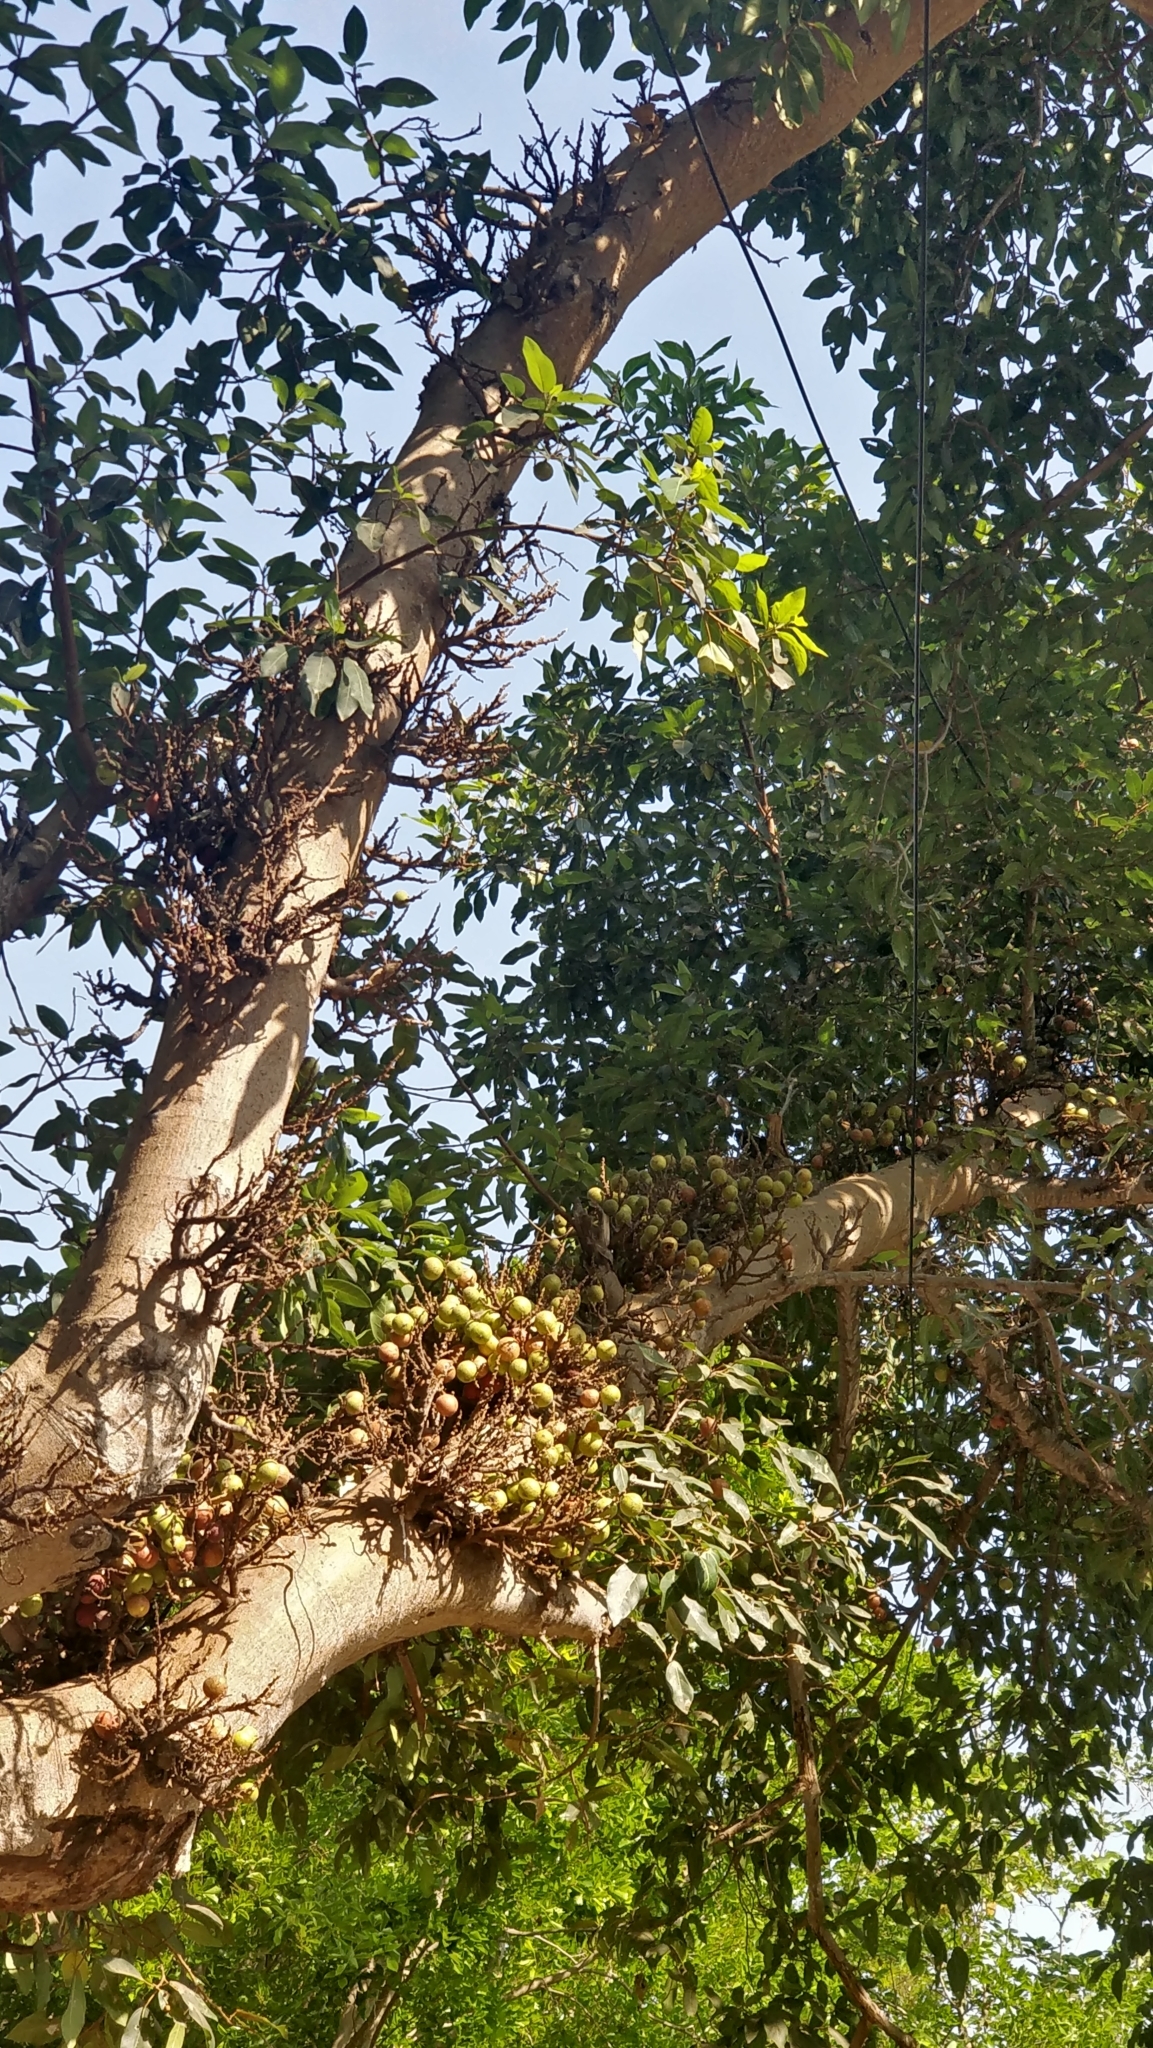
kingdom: Plantae
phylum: Tracheophyta
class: Magnoliopsida
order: Rosales
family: Moraceae
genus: Ficus
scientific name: Ficus racemosa
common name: Cluster fig
